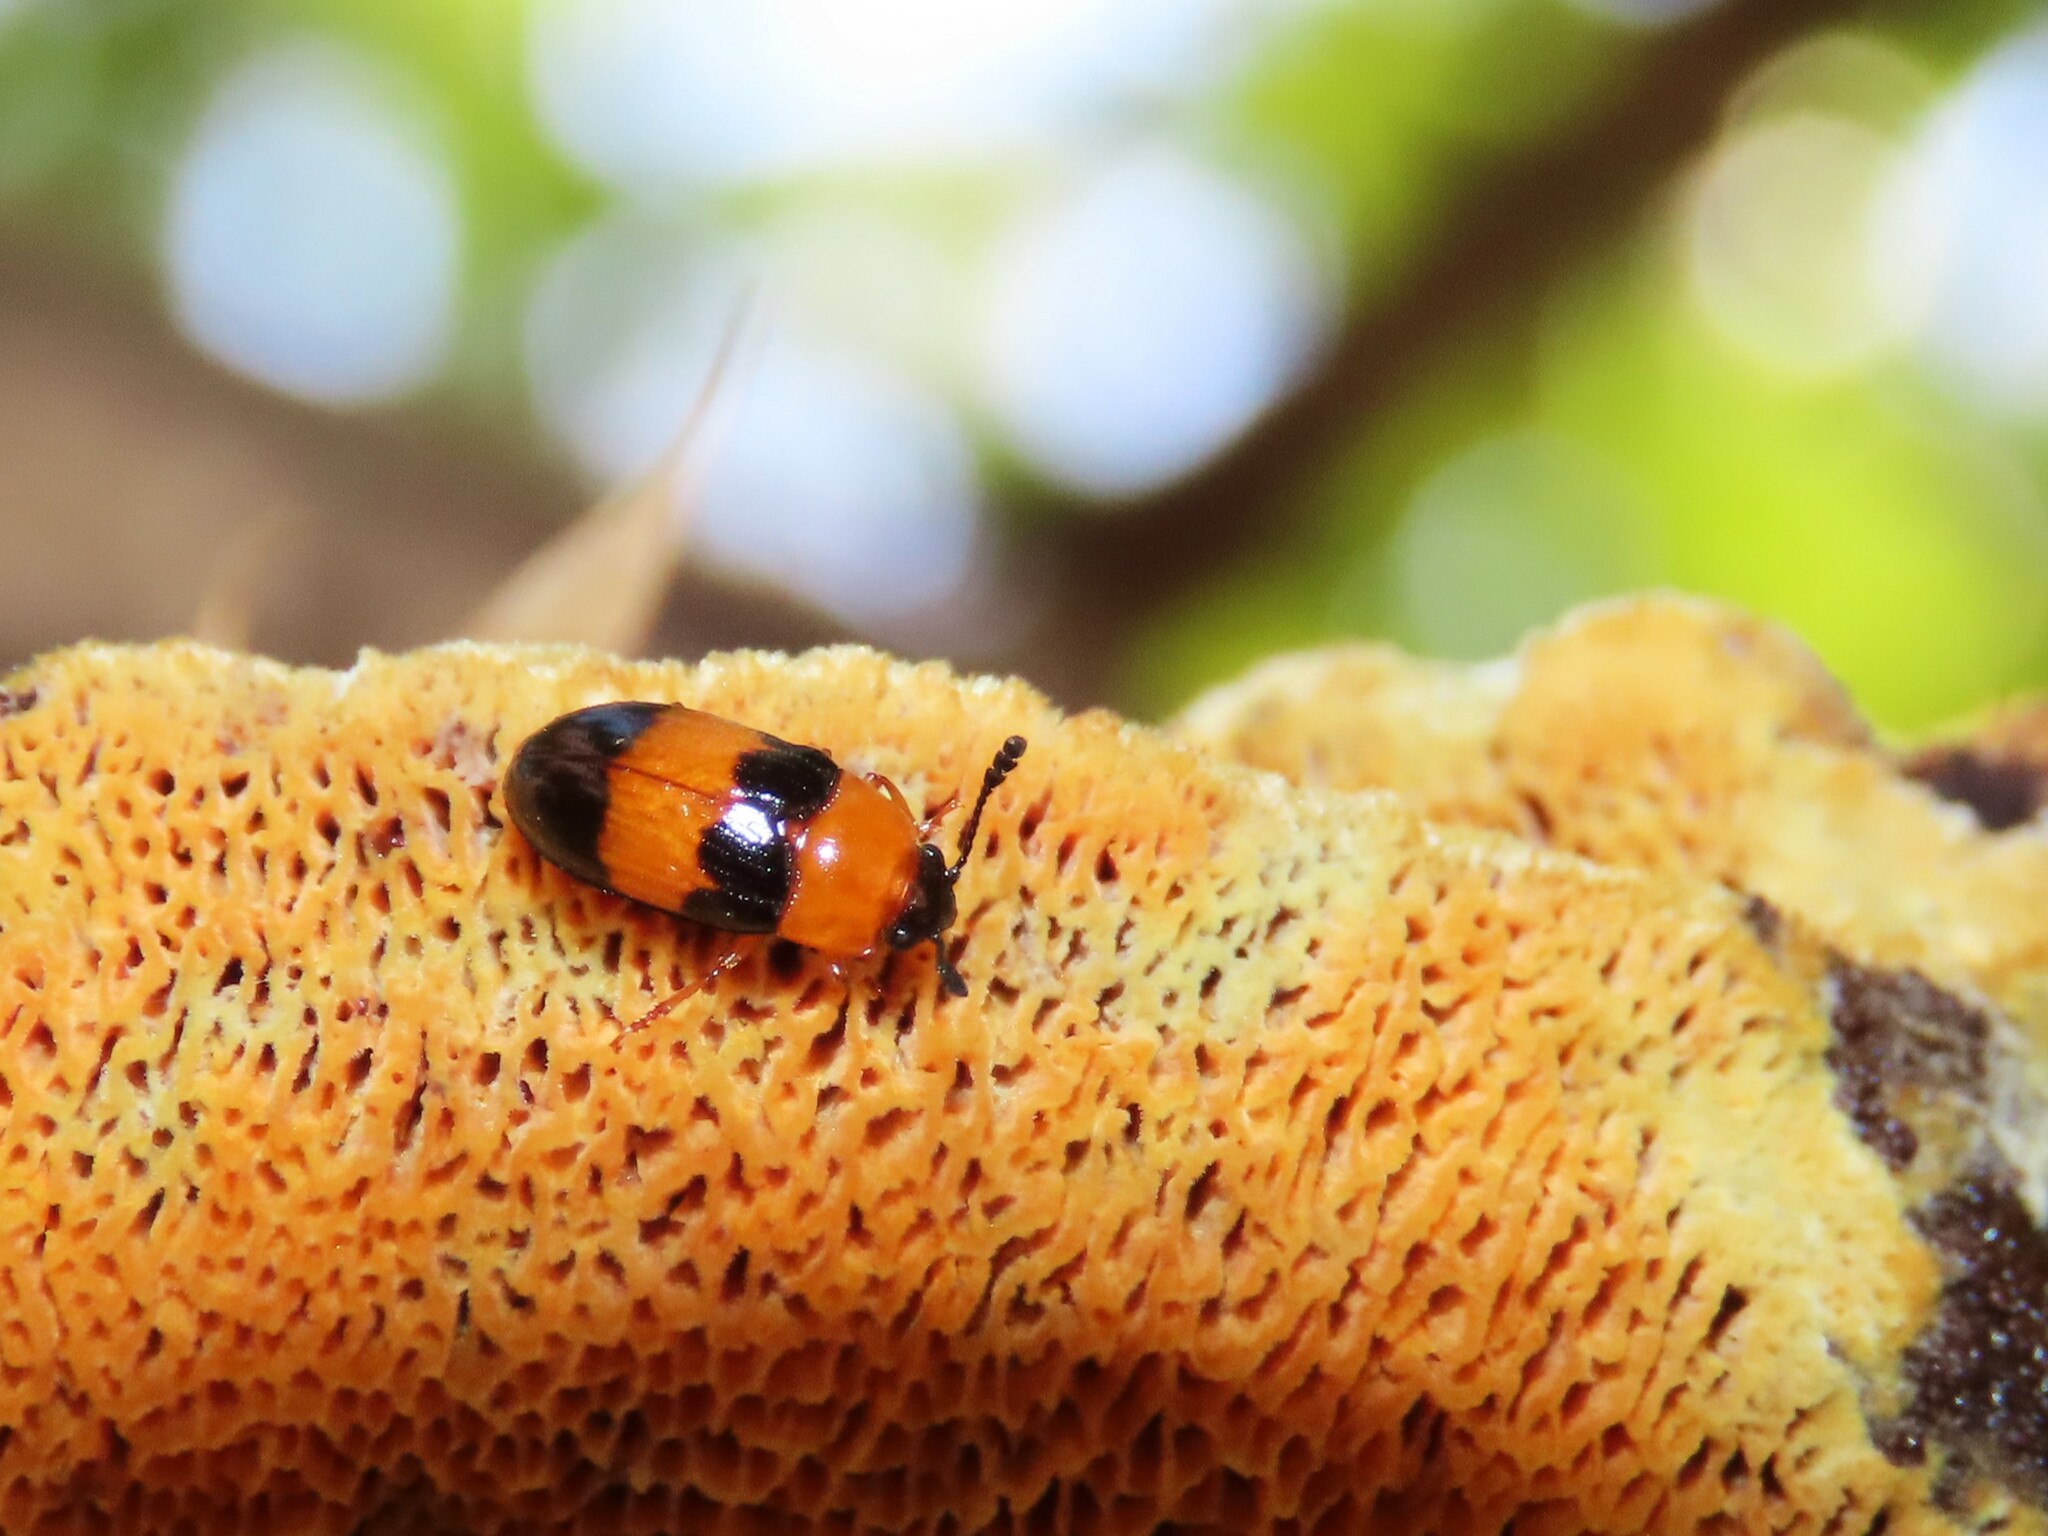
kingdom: Animalia
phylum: Arthropoda
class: Insecta
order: Coleoptera
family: Erotylidae
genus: Triplax
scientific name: Triplax festiva
